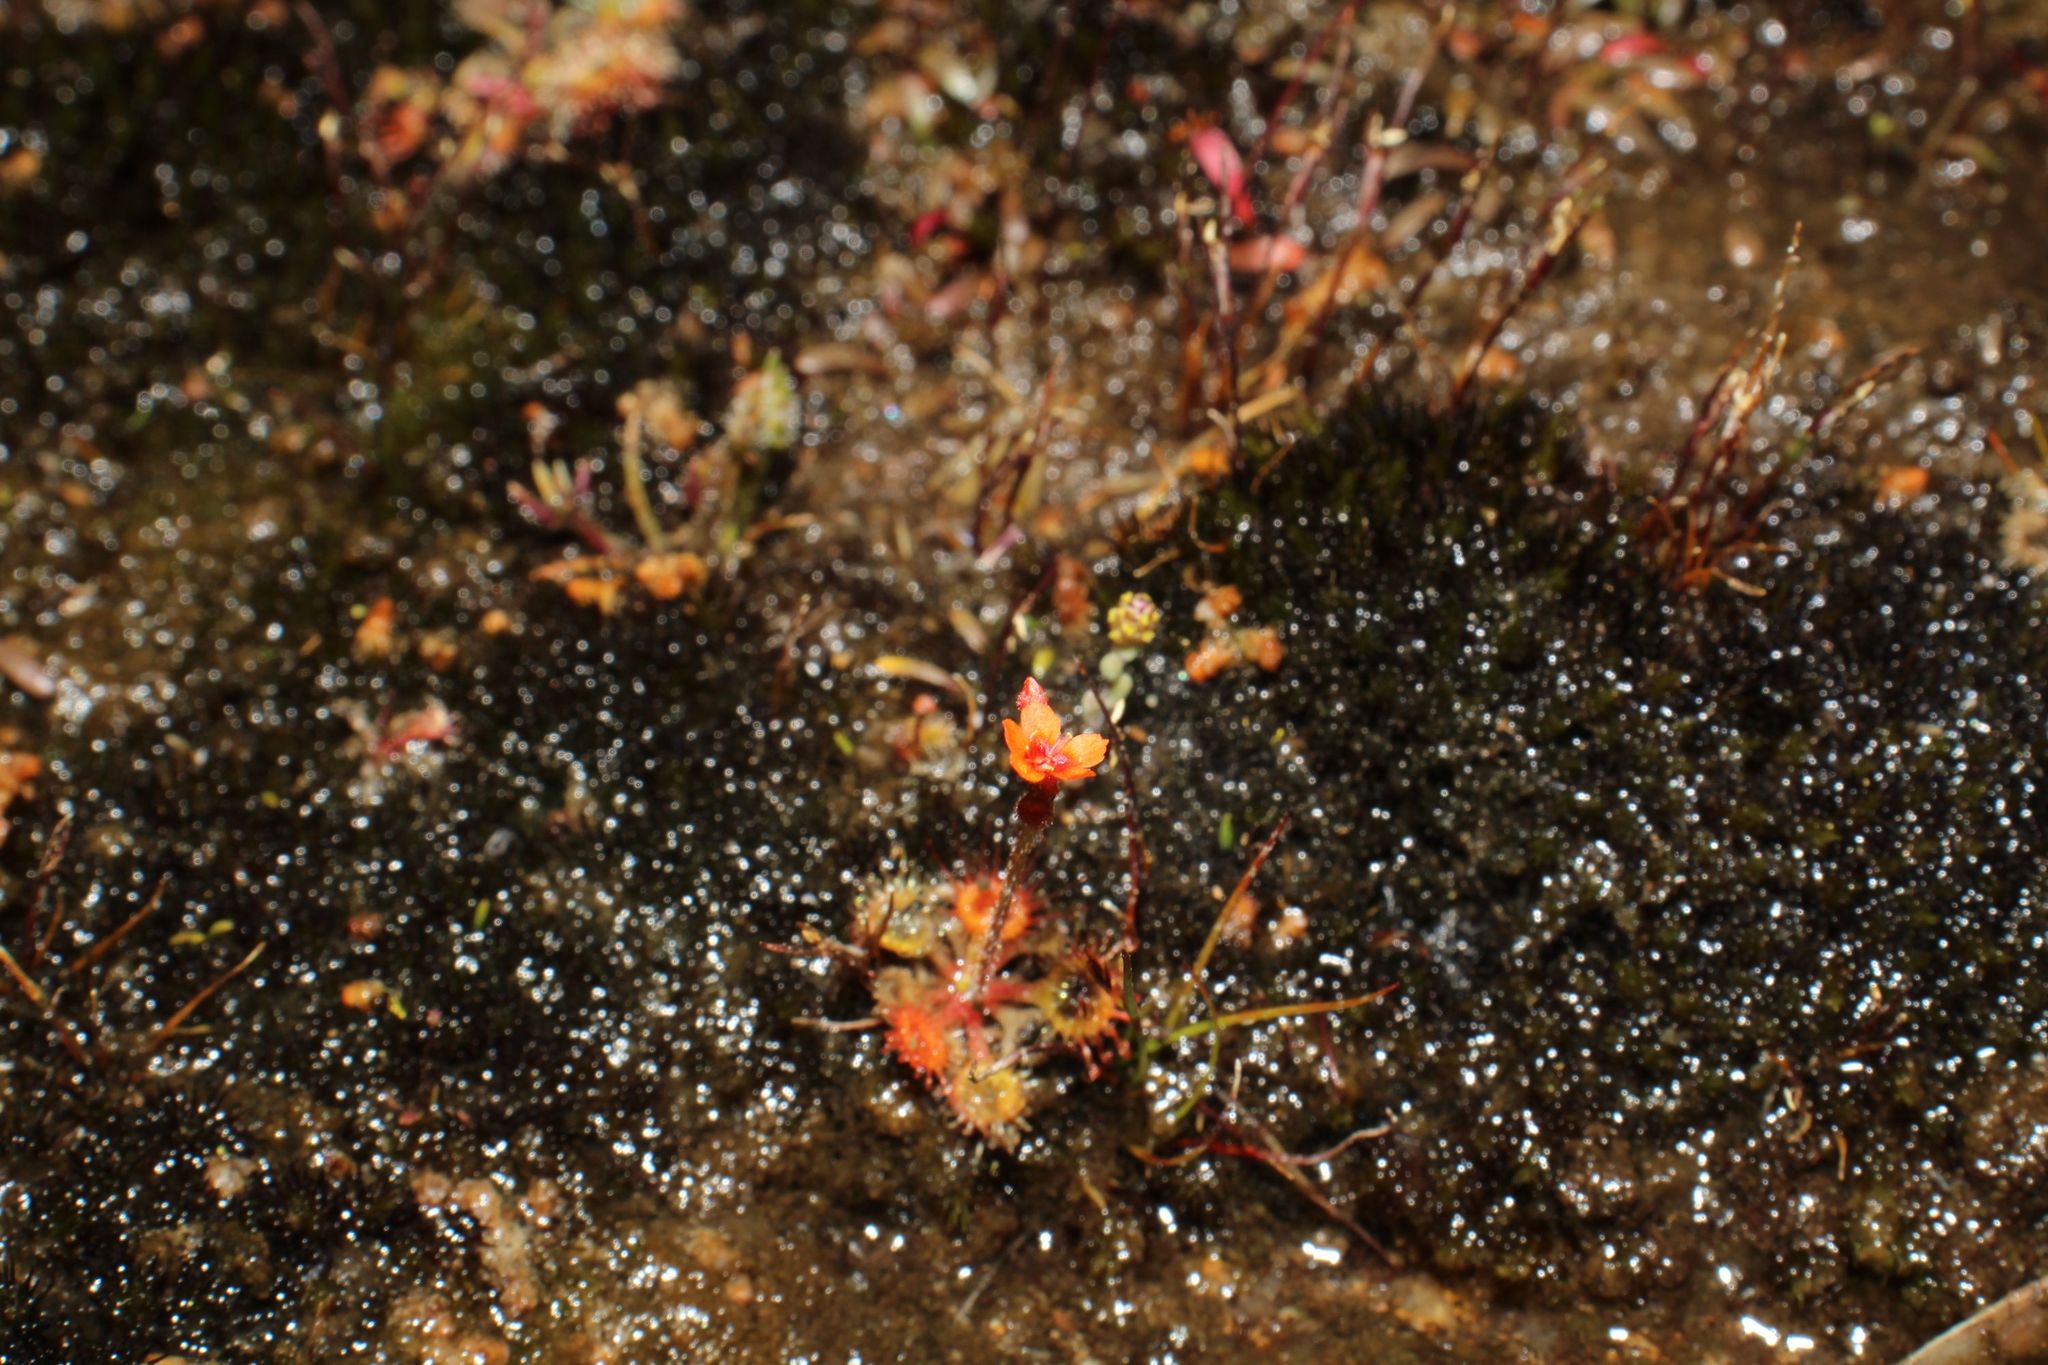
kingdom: Plantae
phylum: Tracheophyta
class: Magnoliopsida
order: Caryophyllales
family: Droseraceae
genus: Drosera
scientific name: Drosera glanduligera
